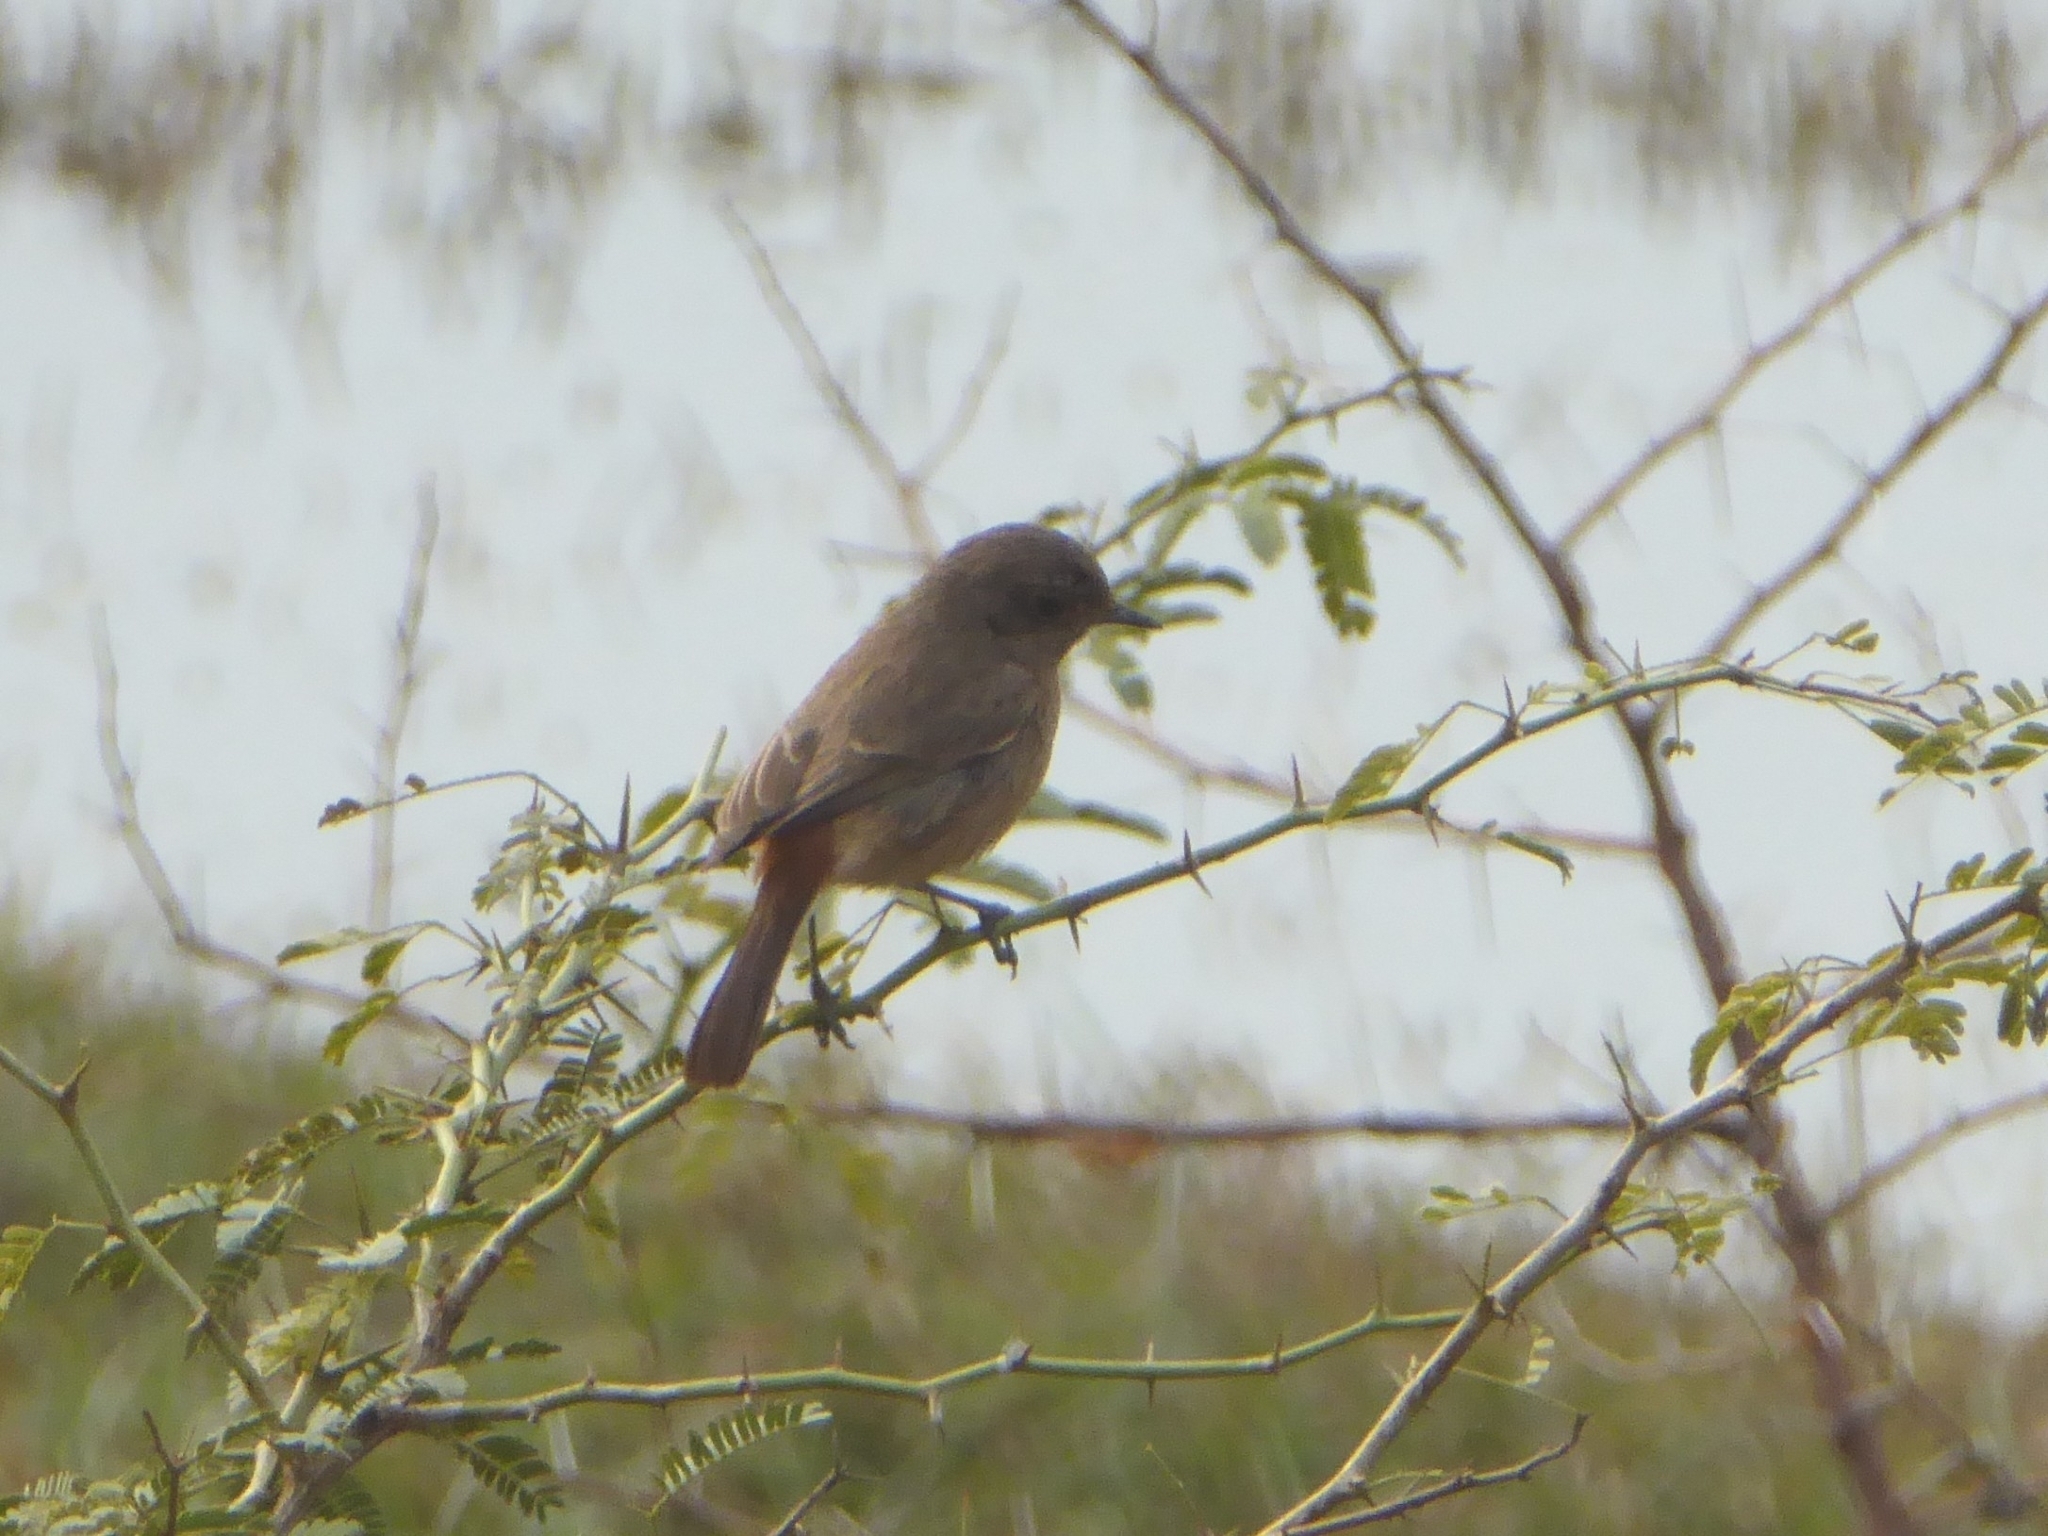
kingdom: Animalia
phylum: Chordata
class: Aves
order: Passeriformes
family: Muscicapidae
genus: Saxicola
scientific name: Saxicola caprata
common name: Pied bush chat
